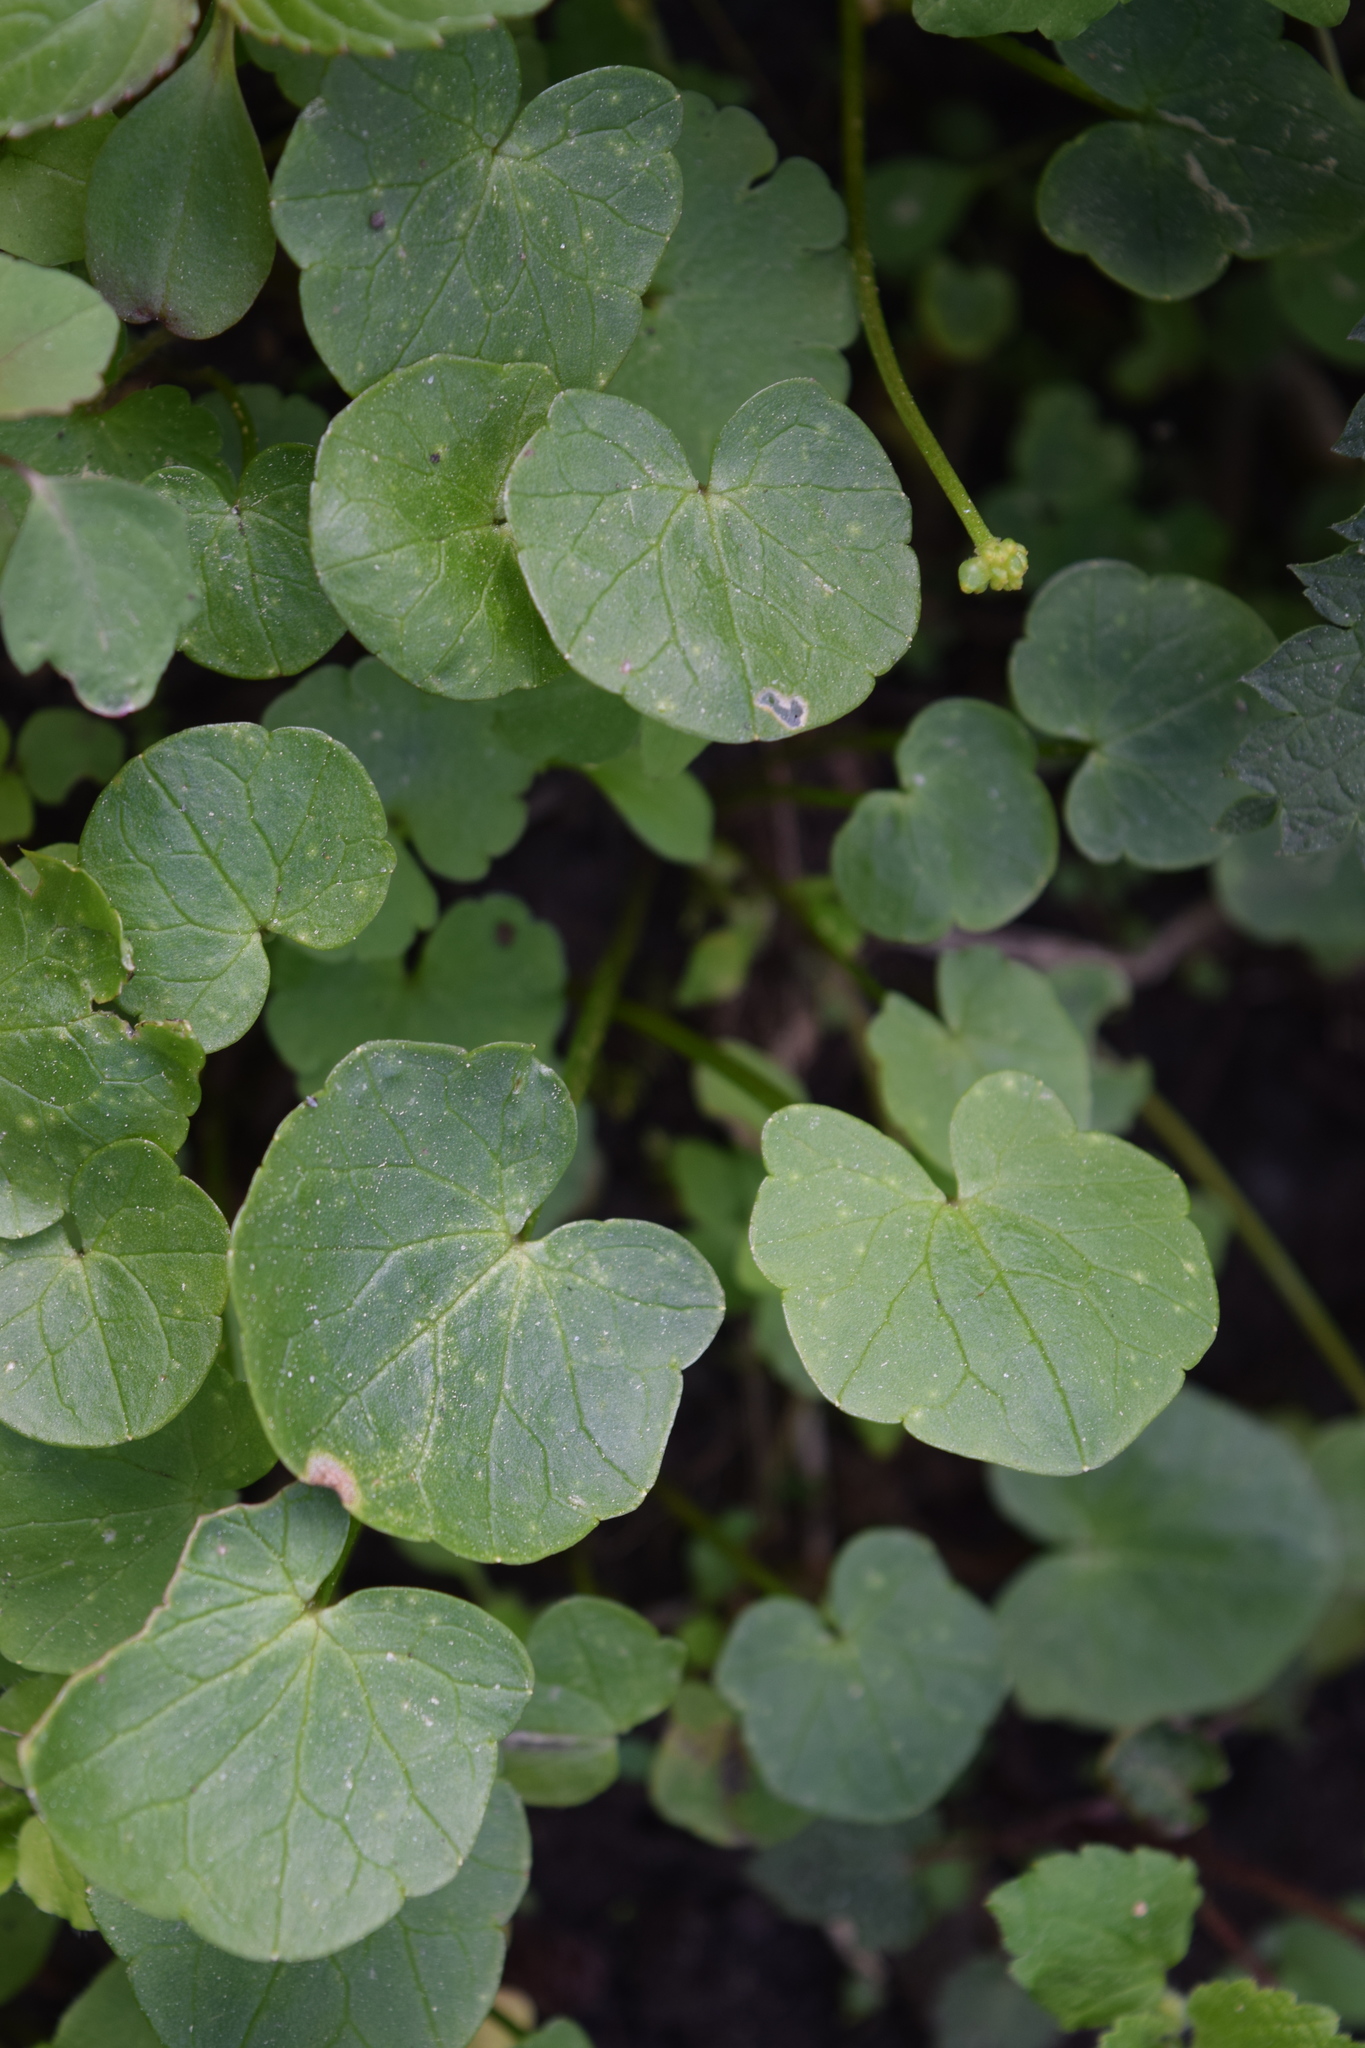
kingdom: Plantae
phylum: Tracheophyta
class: Magnoliopsida
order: Ranunculales
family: Ranunculaceae
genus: Ficaria
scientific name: Ficaria verna
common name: Lesser celandine
